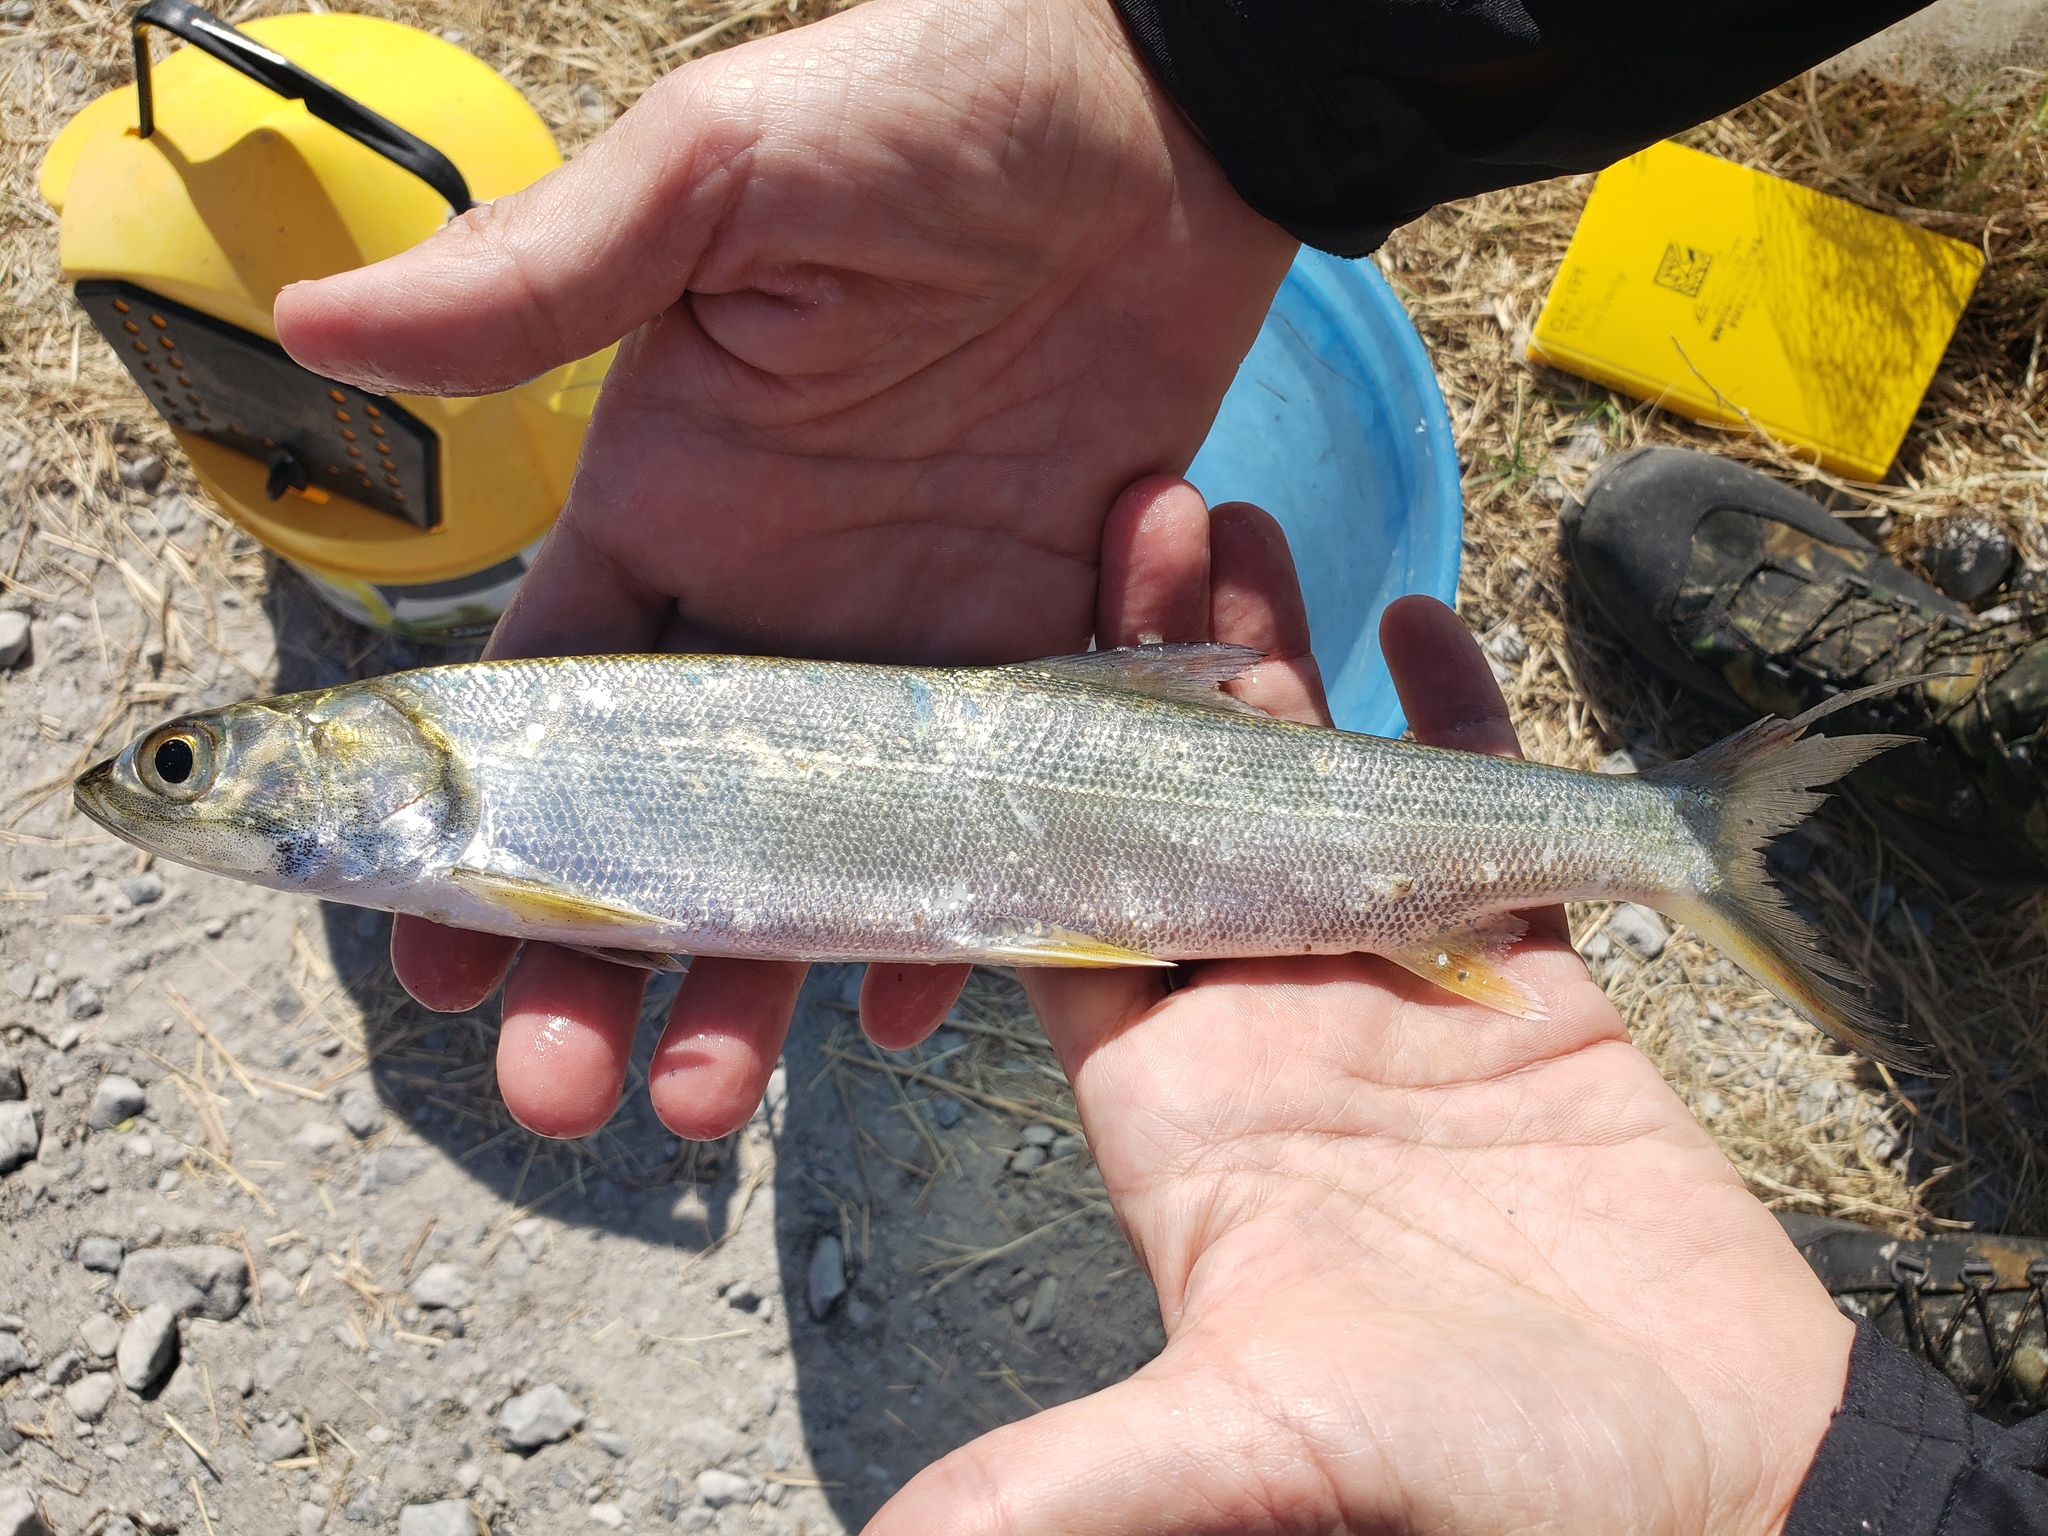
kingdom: Animalia
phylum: Chordata
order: Elopiformes
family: Elopidae
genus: Elops
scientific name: Elops saurus
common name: Ladyfish
